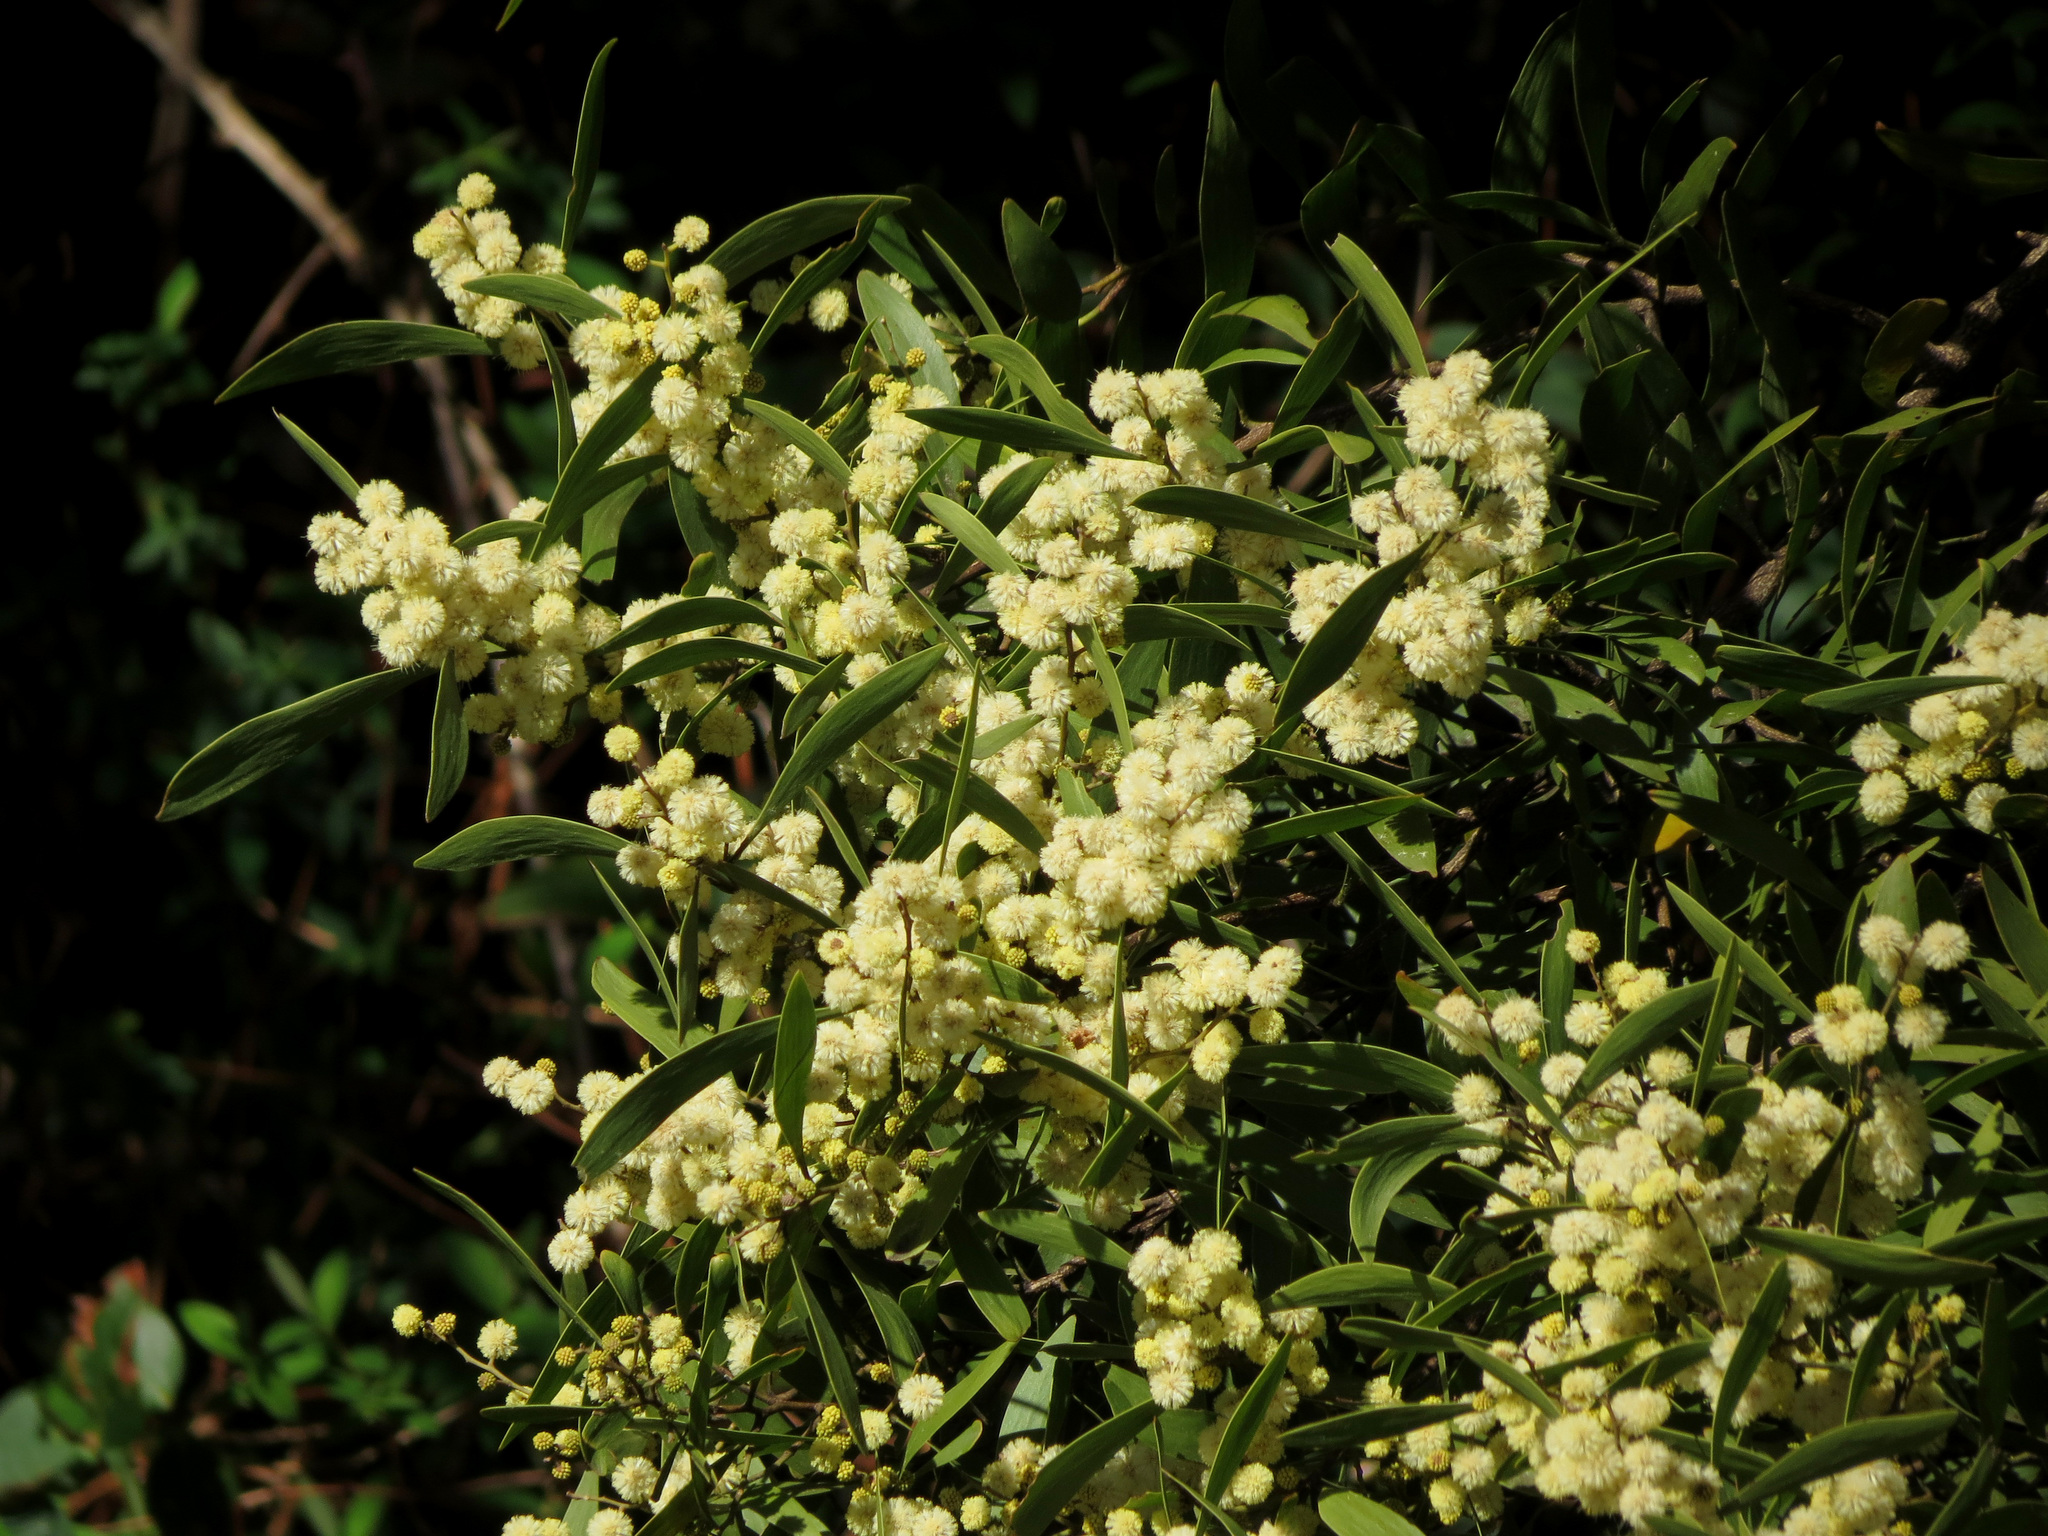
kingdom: Plantae
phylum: Tracheophyta
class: Magnoliopsida
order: Fabales
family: Fabaceae
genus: Acacia
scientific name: Acacia melanoxylon
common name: Blackwood
